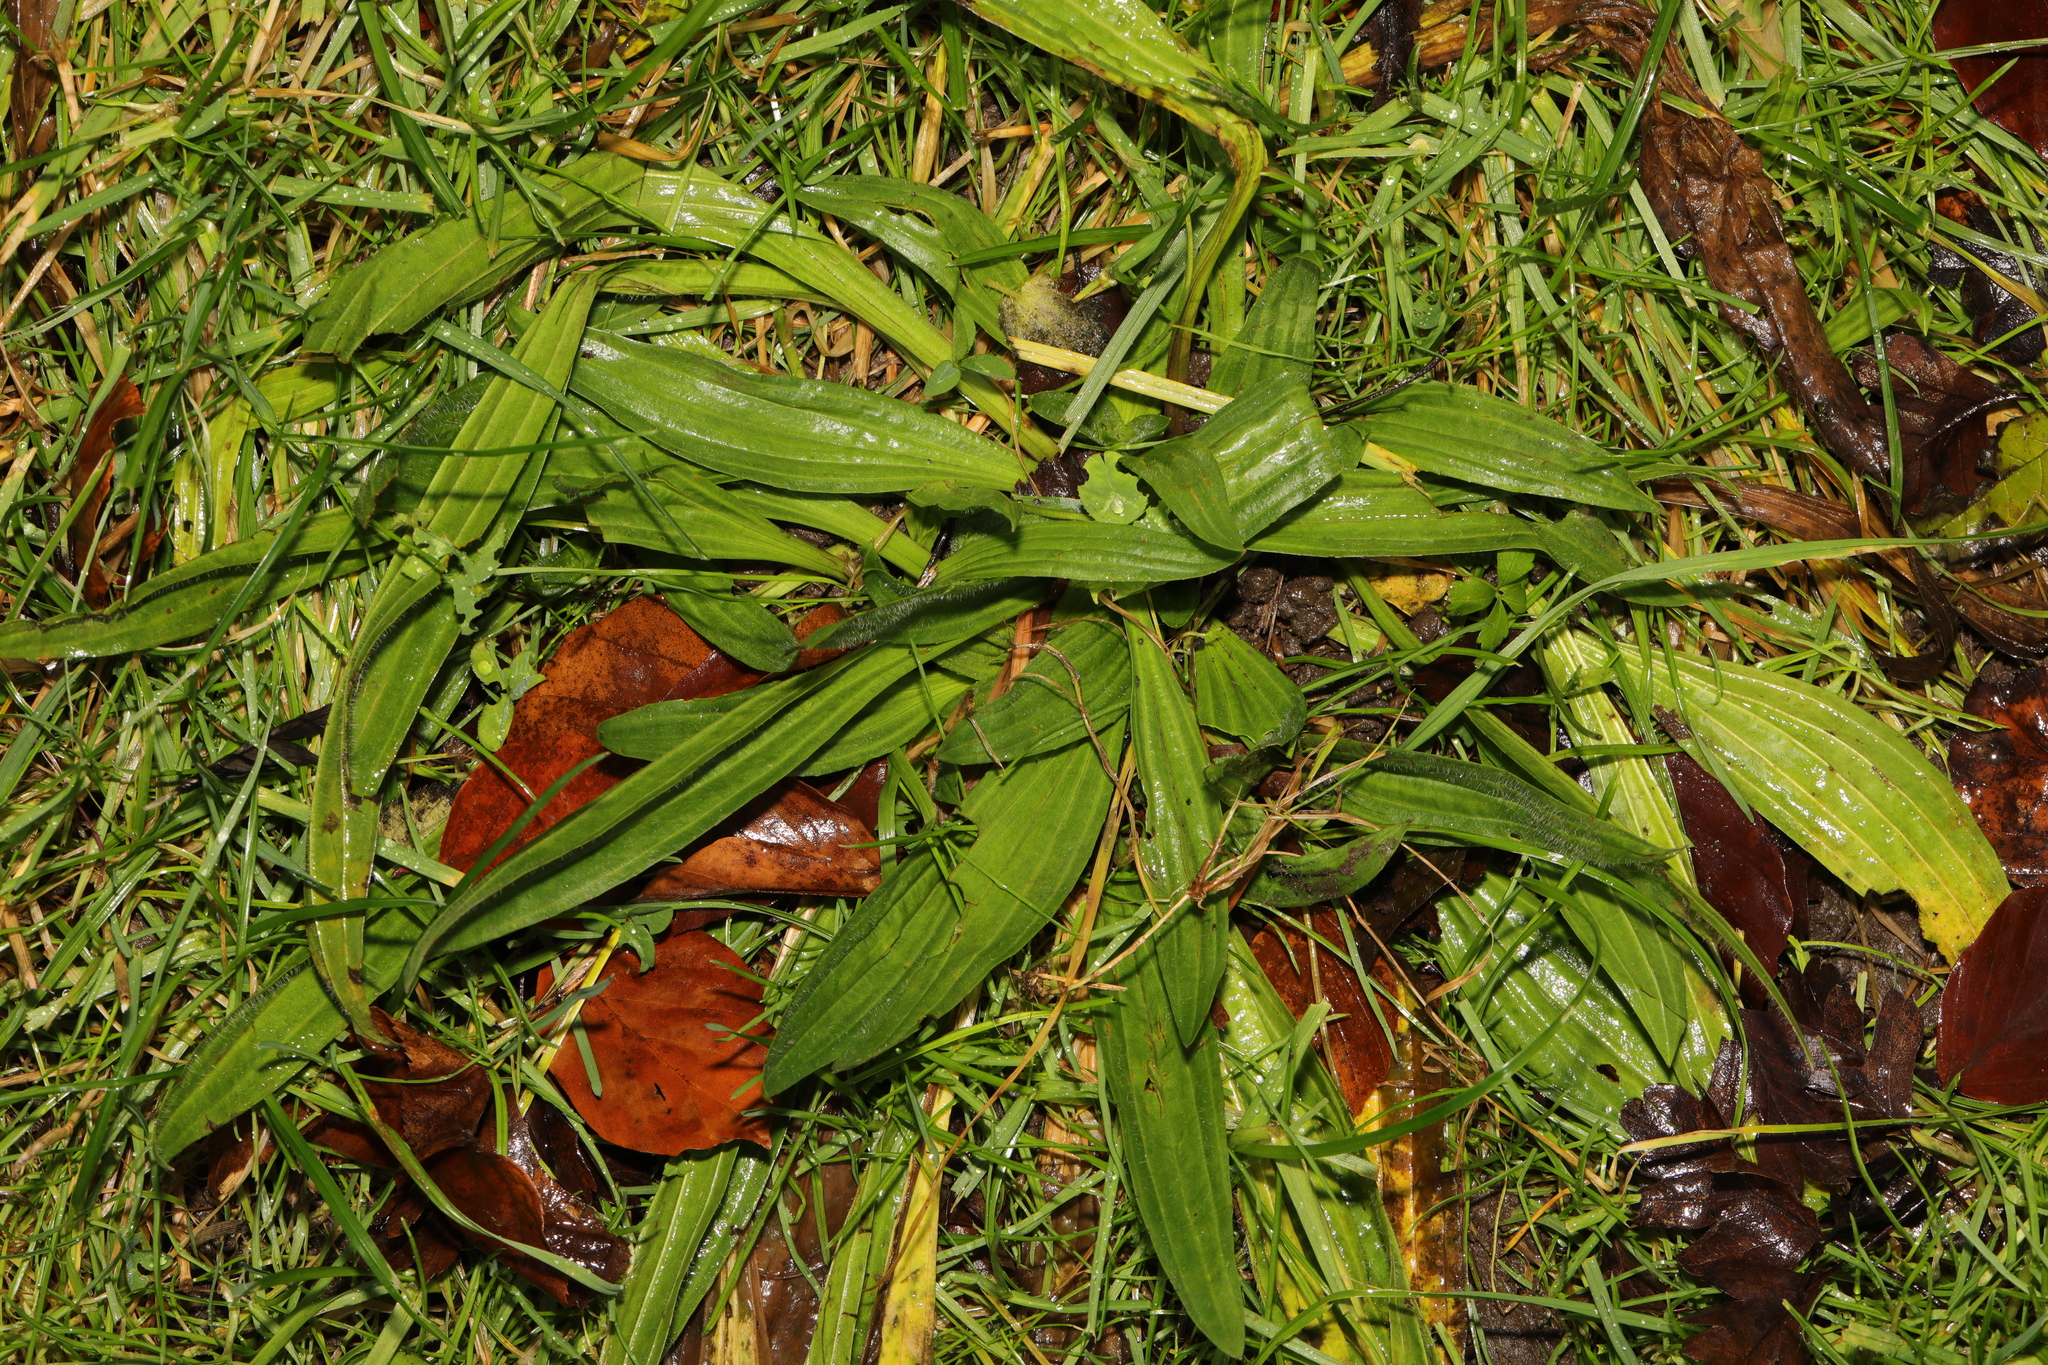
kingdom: Plantae
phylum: Tracheophyta
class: Magnoliopsida
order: Lamiales
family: Plantaginaceae
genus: Plantago
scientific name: Plantago lanceolata
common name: Ribwort plantain
